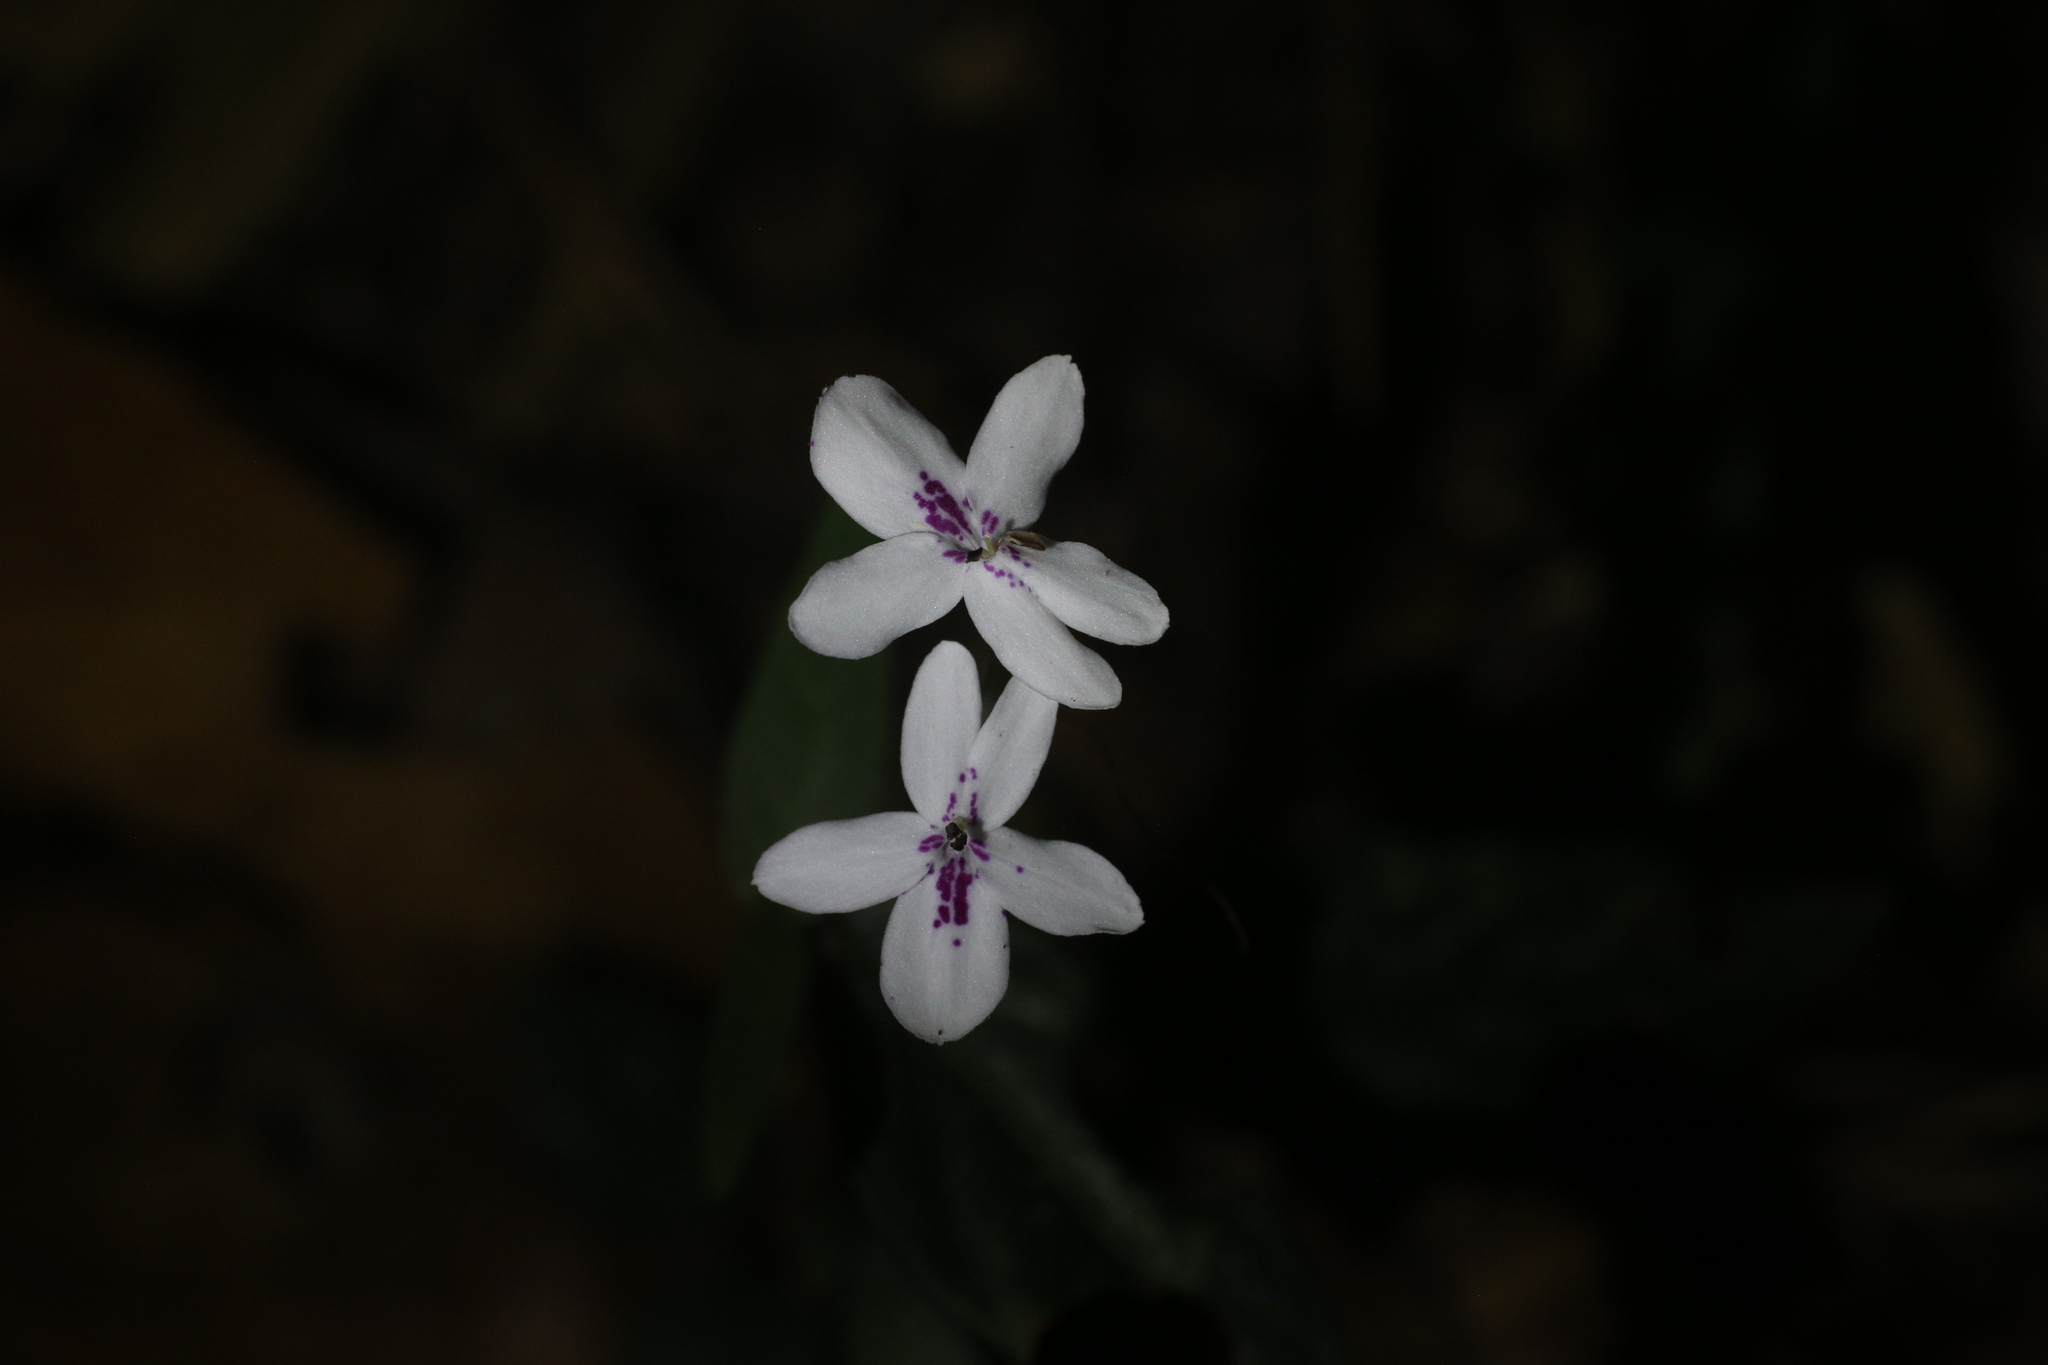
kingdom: Plantae
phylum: Tracheophyta
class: Magnoliopsida
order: Lamiales
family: Acanthaceae
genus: Pseuderanthemum
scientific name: Pseuderanthemum variabile
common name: Night and afternoon
